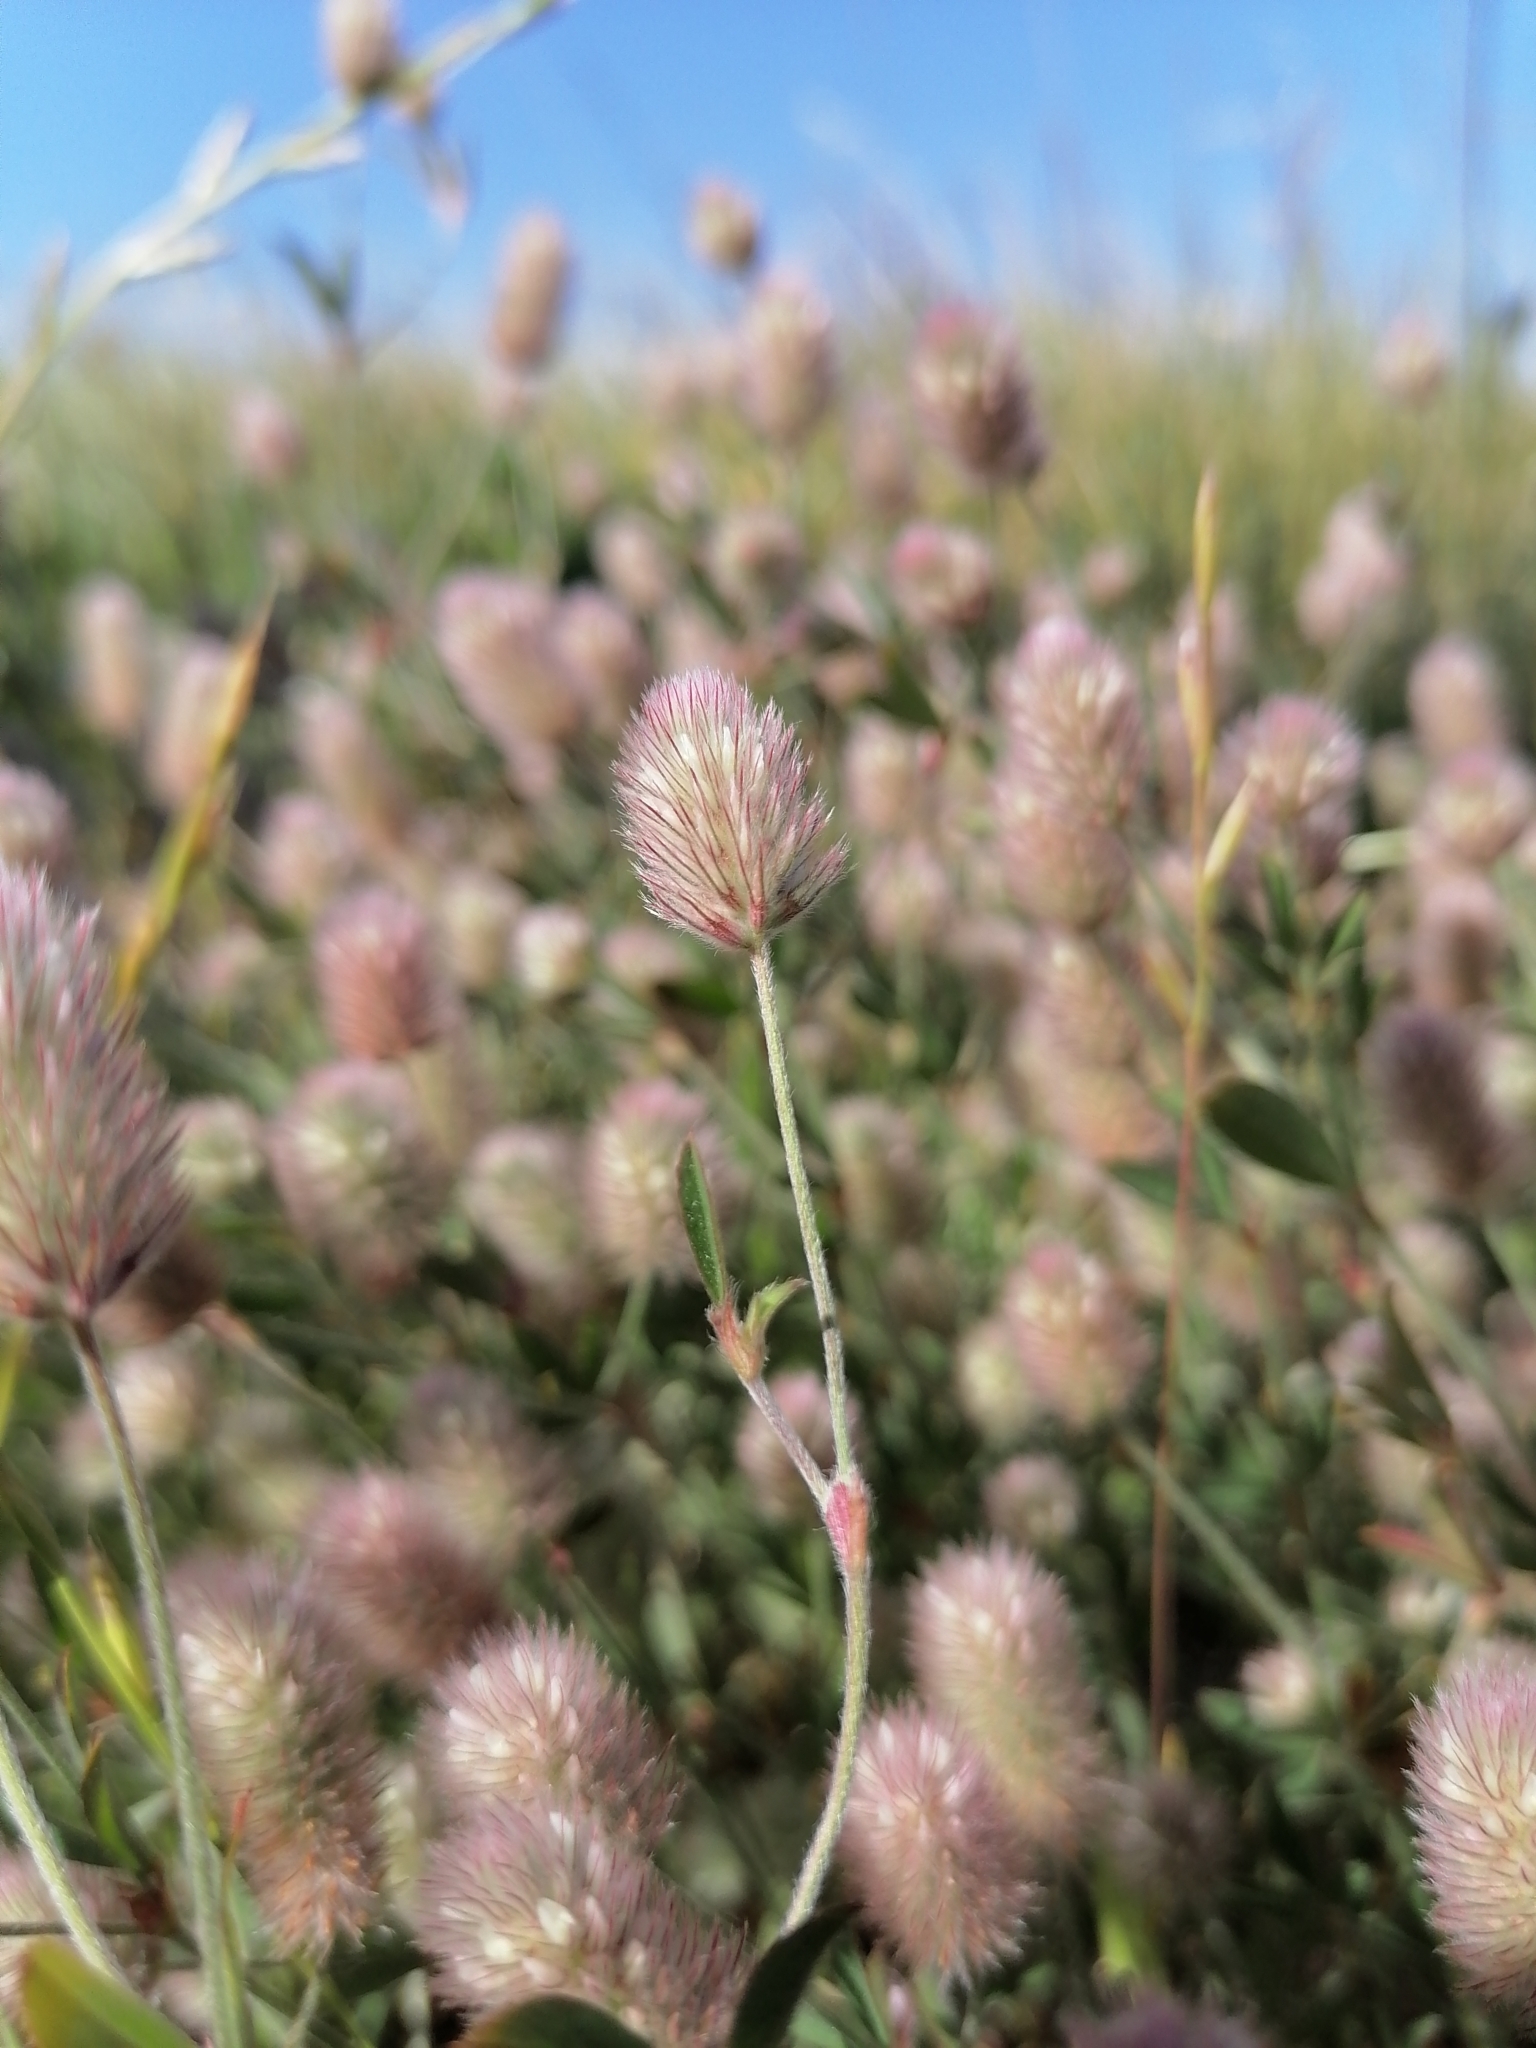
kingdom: Plantae
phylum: Tracheophyta
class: Magnoliopsida
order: Fabales
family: Fabaceae
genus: Trifolium
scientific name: Trifolium arvense
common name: Hare's-foot clover
